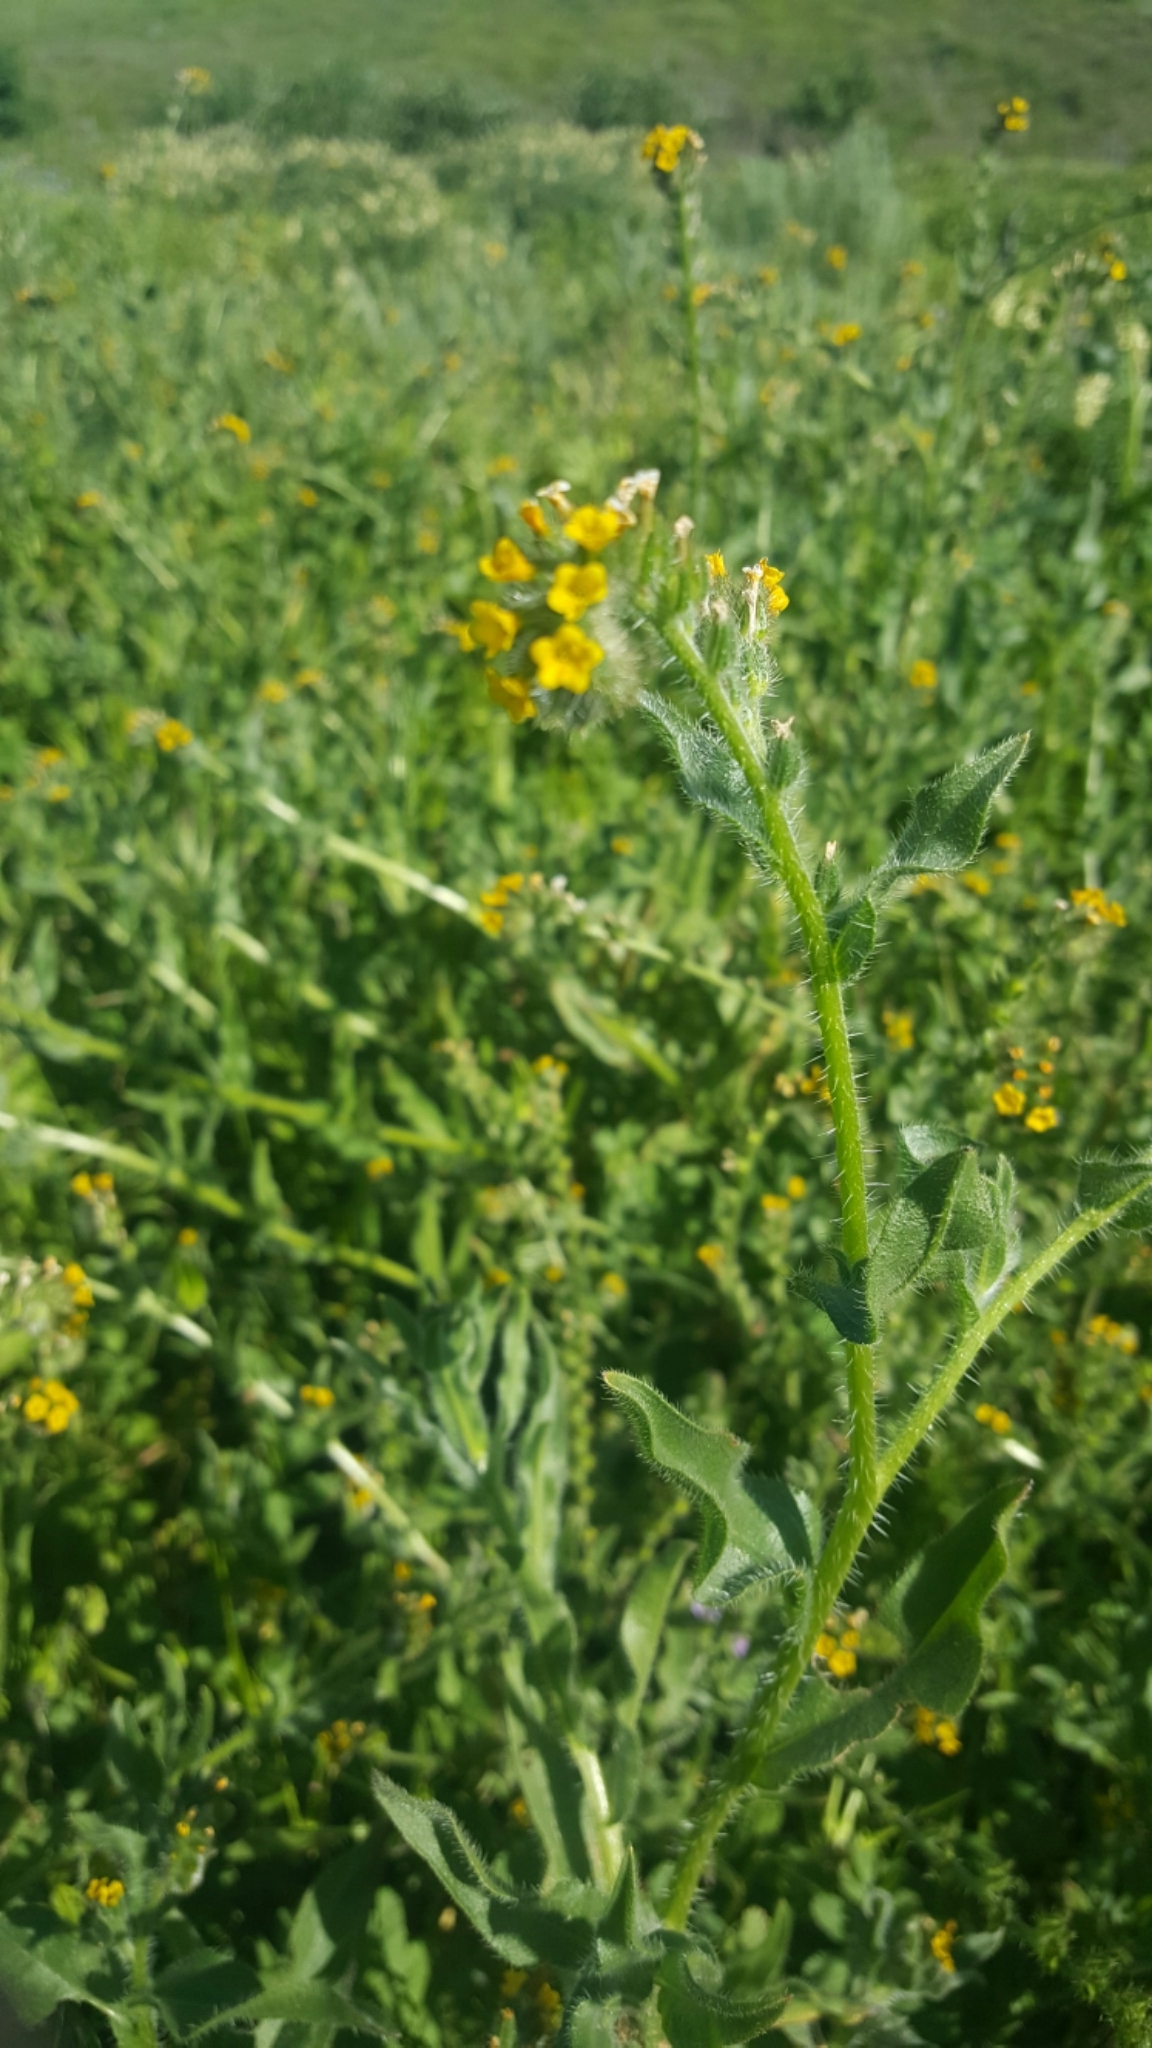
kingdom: Plantae
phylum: Tracheophyta
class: Magnoliopsida
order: Boraginales
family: Boraginaceae
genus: Amsinckia
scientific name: Amsinckia menziesii
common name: Menzies' fiddleneck
